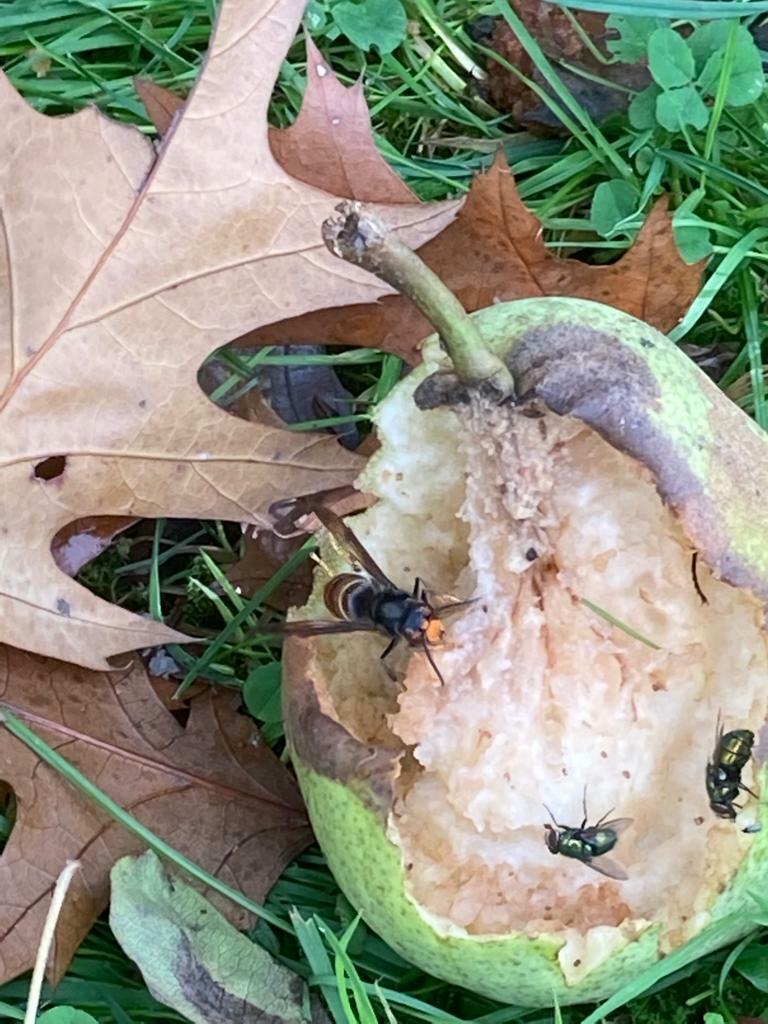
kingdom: Animalia
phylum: Arthropoda
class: Insecta
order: Hymenoptera
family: Vespidae
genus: Vespa
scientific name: Vespa velutina
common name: Asian hornet
